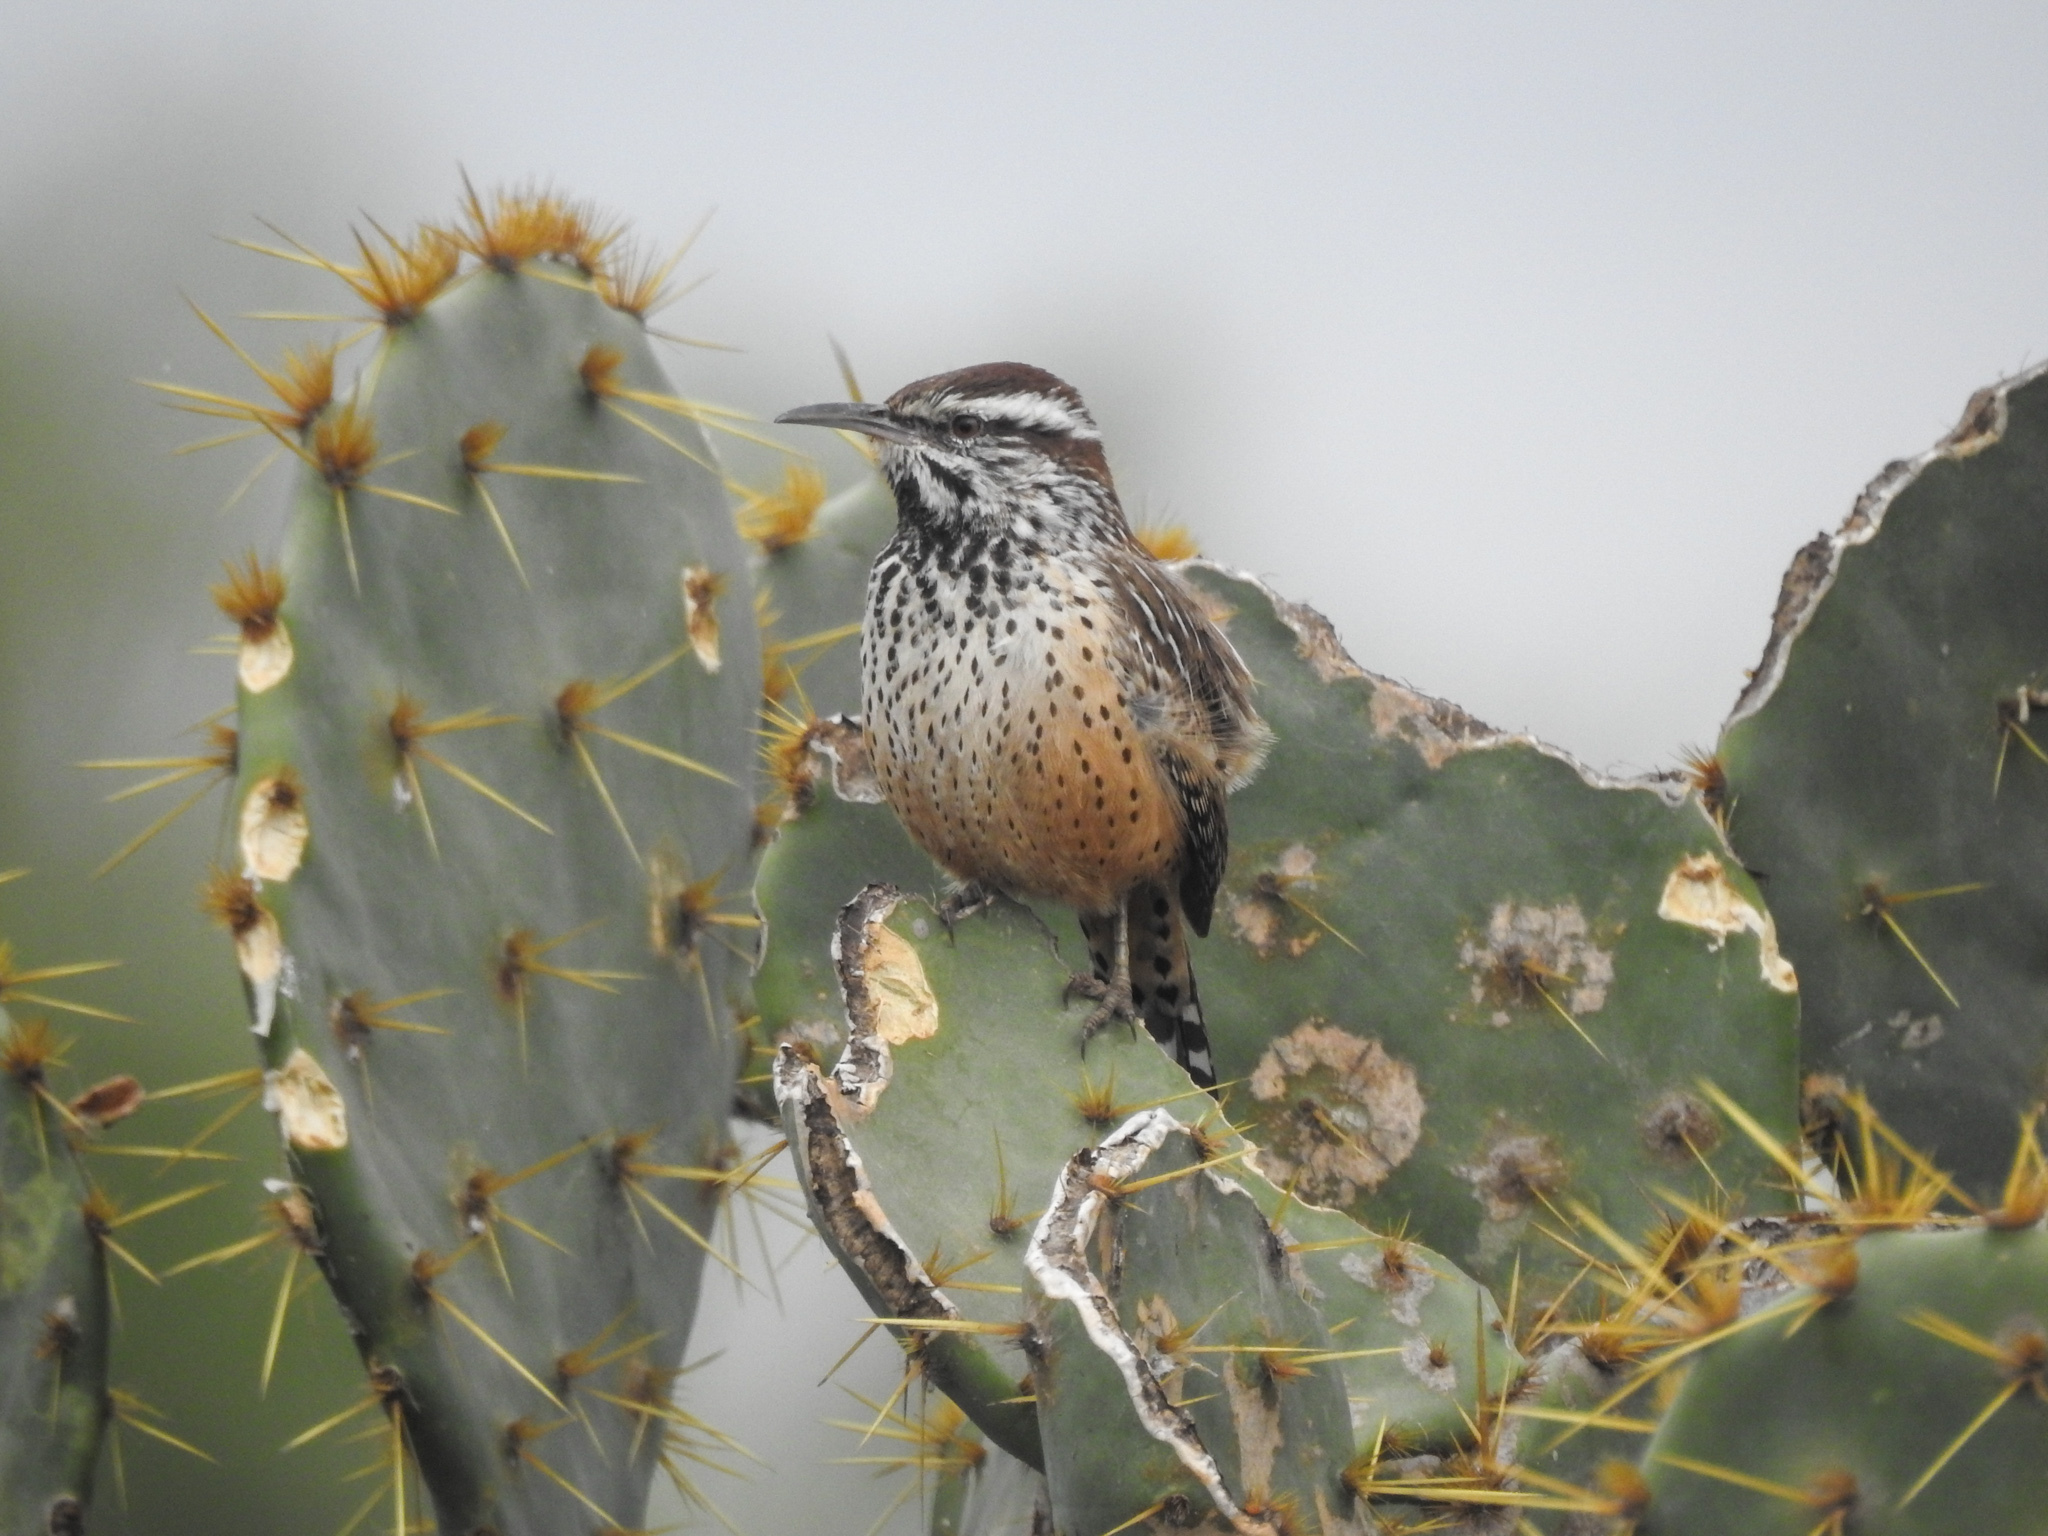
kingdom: Animalia
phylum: Chordata
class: Aves
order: Passeriformes
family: Troglodytidae
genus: Campylorhynchus
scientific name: Campylorhynchus brunneicapillus
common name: Cactus wren
